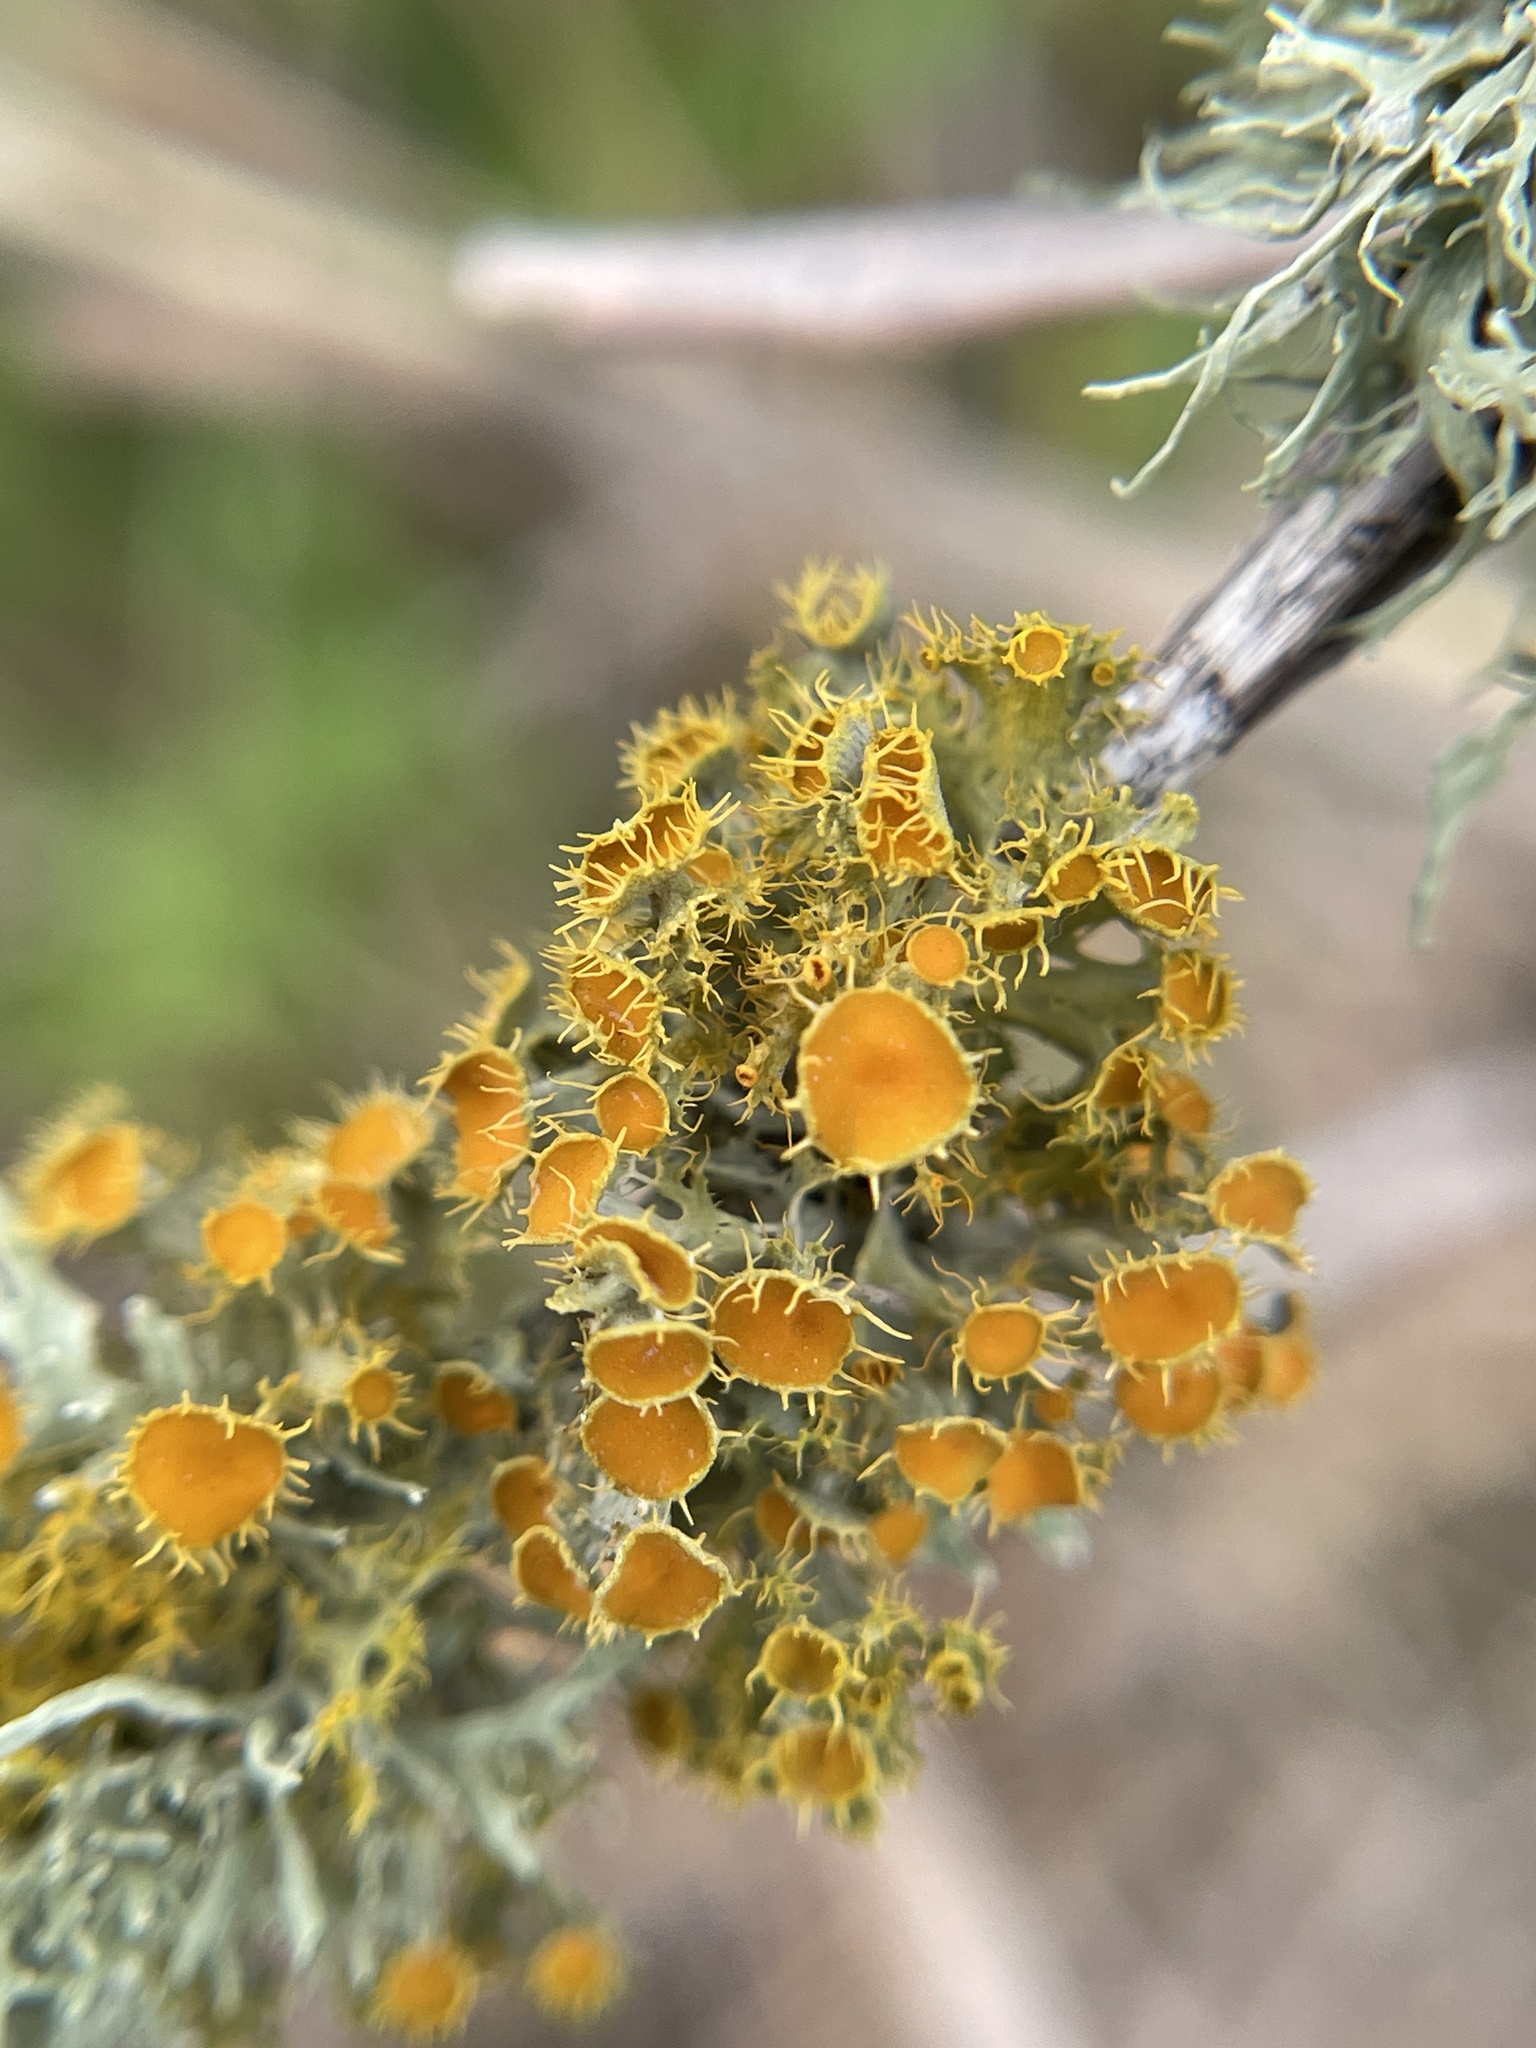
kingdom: Fungi
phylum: Ascomycota
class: Lecanoromycetes
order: Teloschistales
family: Teloschistaceae
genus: Niorma
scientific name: Niorma chrysophthalma
